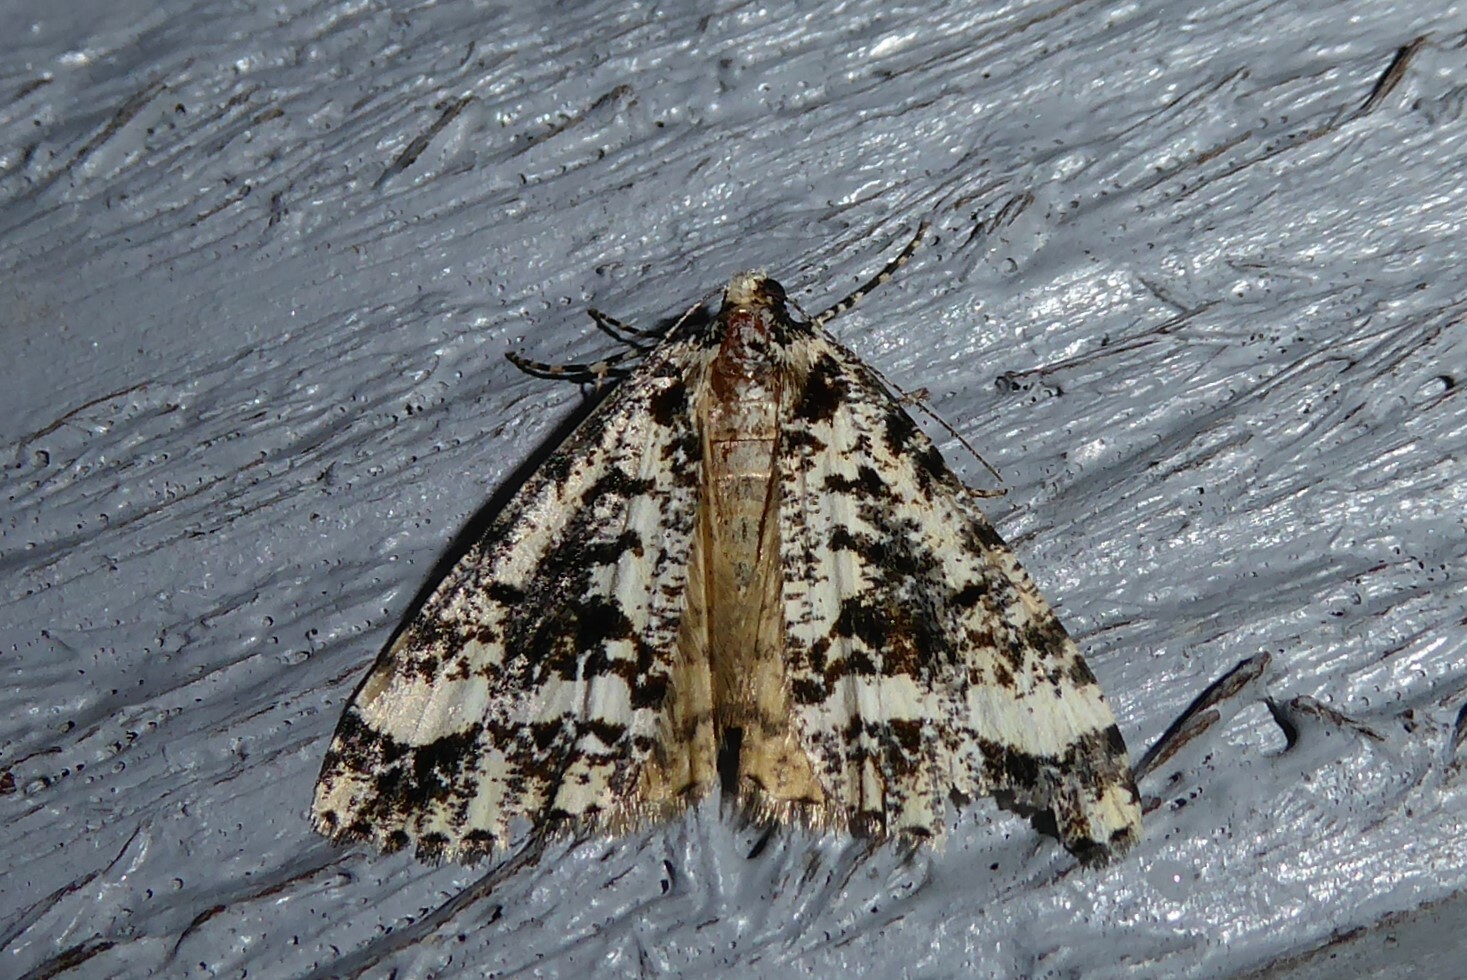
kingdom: Animalia
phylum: Arthropoda
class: Insecta
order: Lepidoptera
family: Geometridae
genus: Pseudocoremia
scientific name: Pseudocoremia leucelaea
